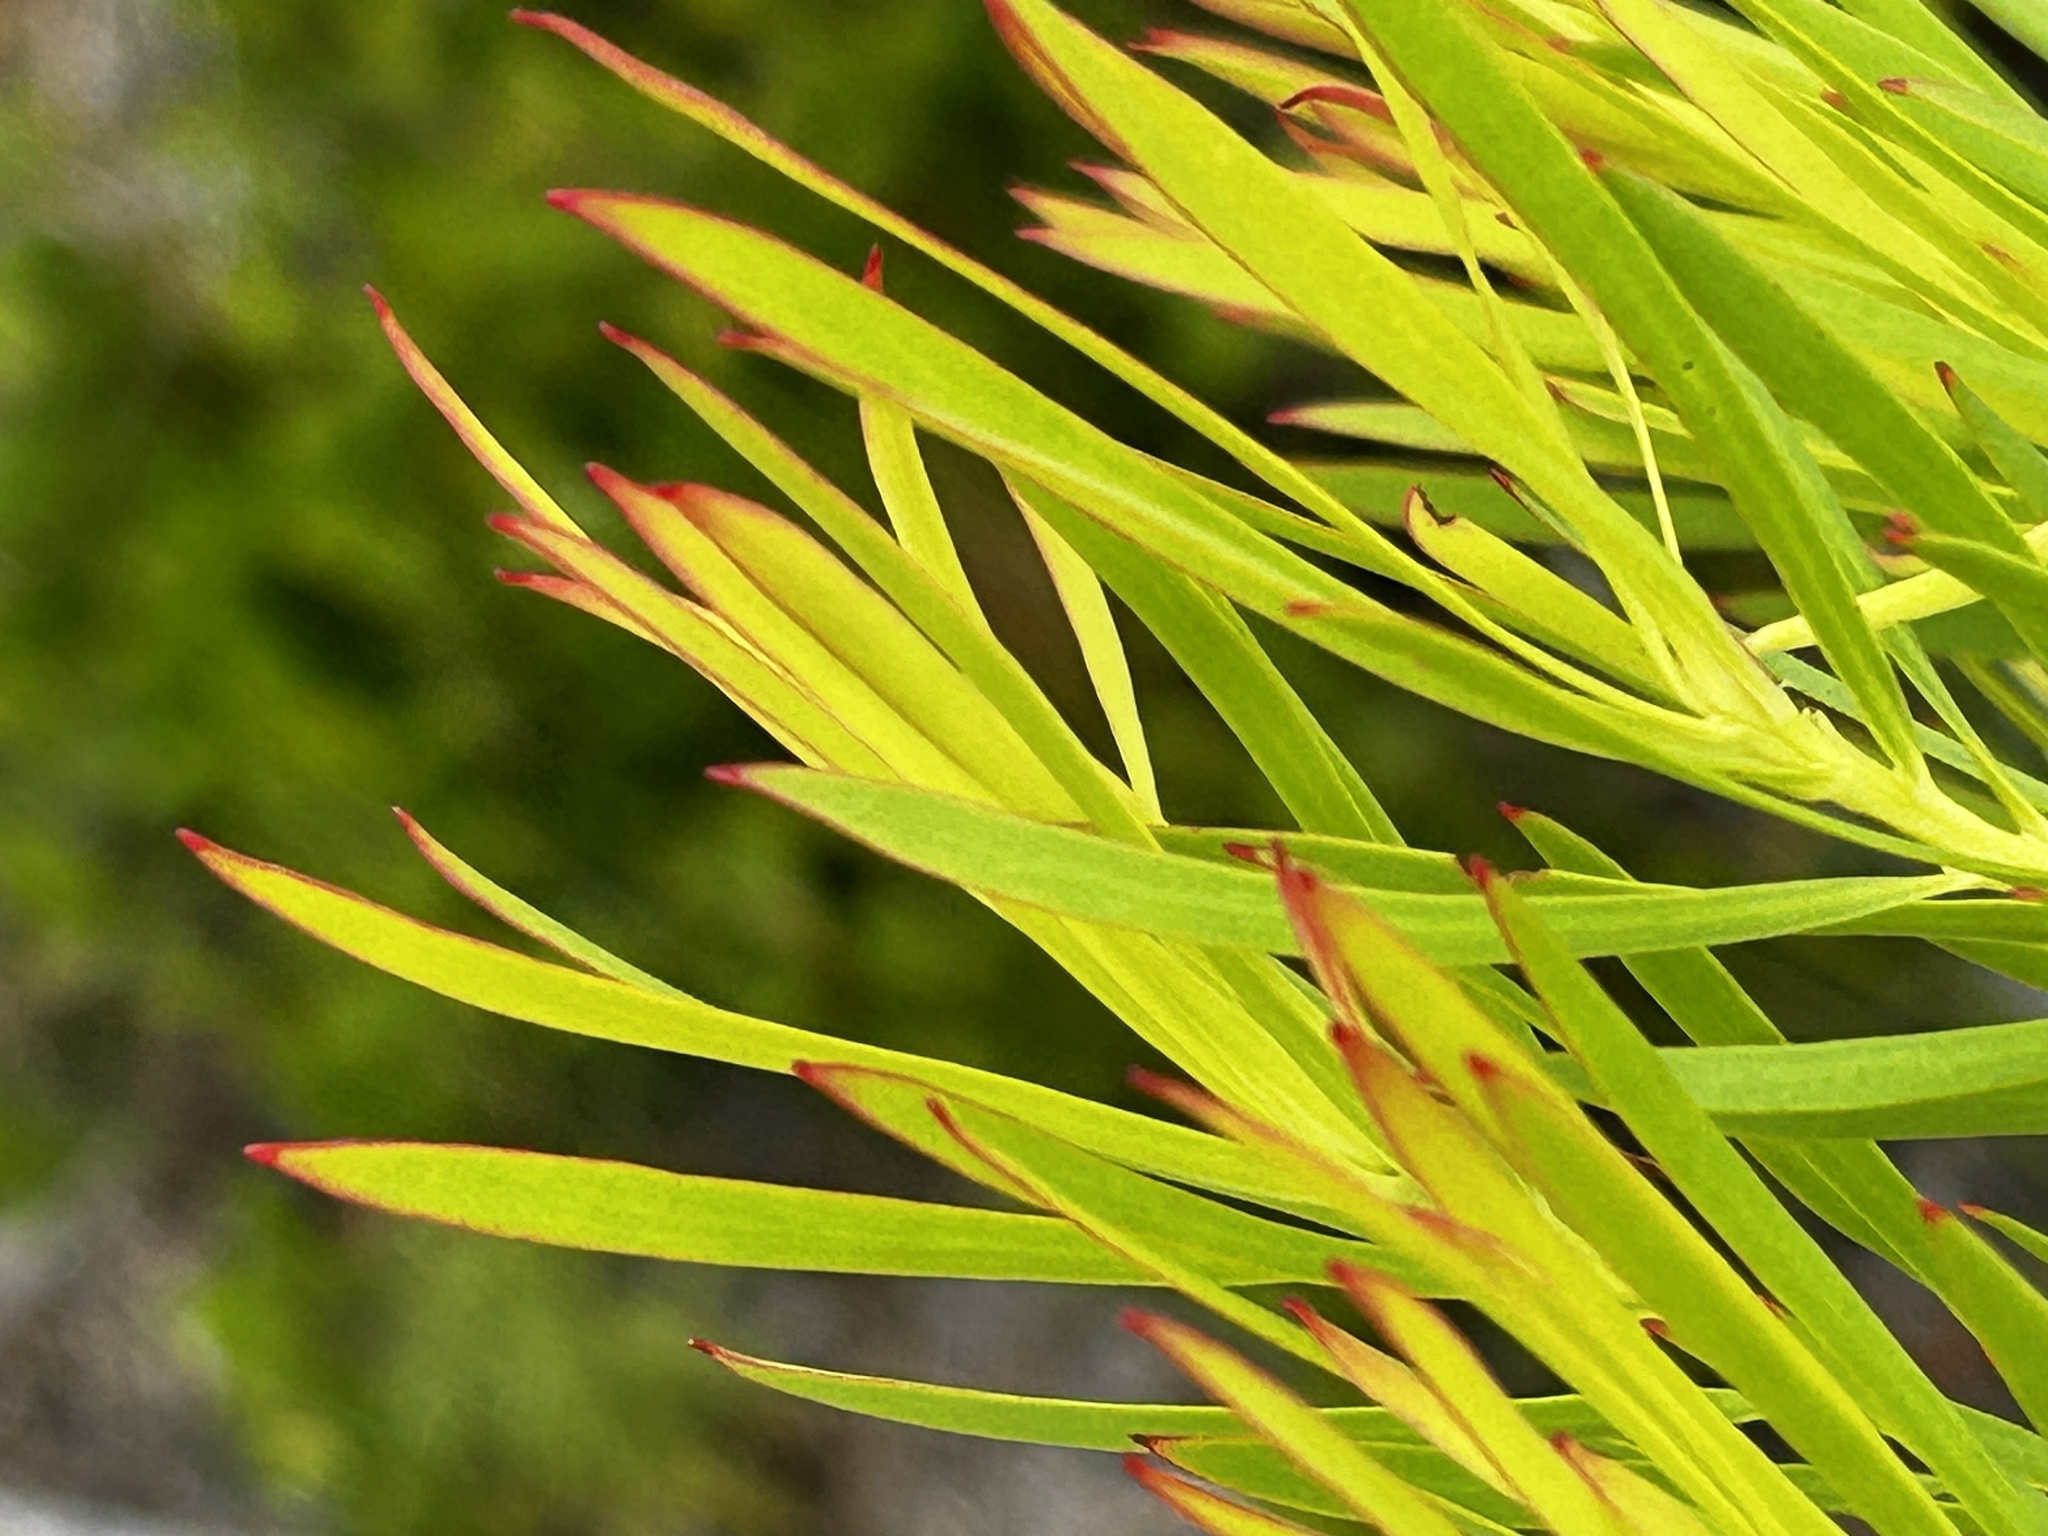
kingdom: Plantae
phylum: Tracheophyta
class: Magnoliopsida
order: Proteales
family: Proteaceae
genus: Leucadendron
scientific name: Leucadendron salignum
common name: Common sunshine conebush
